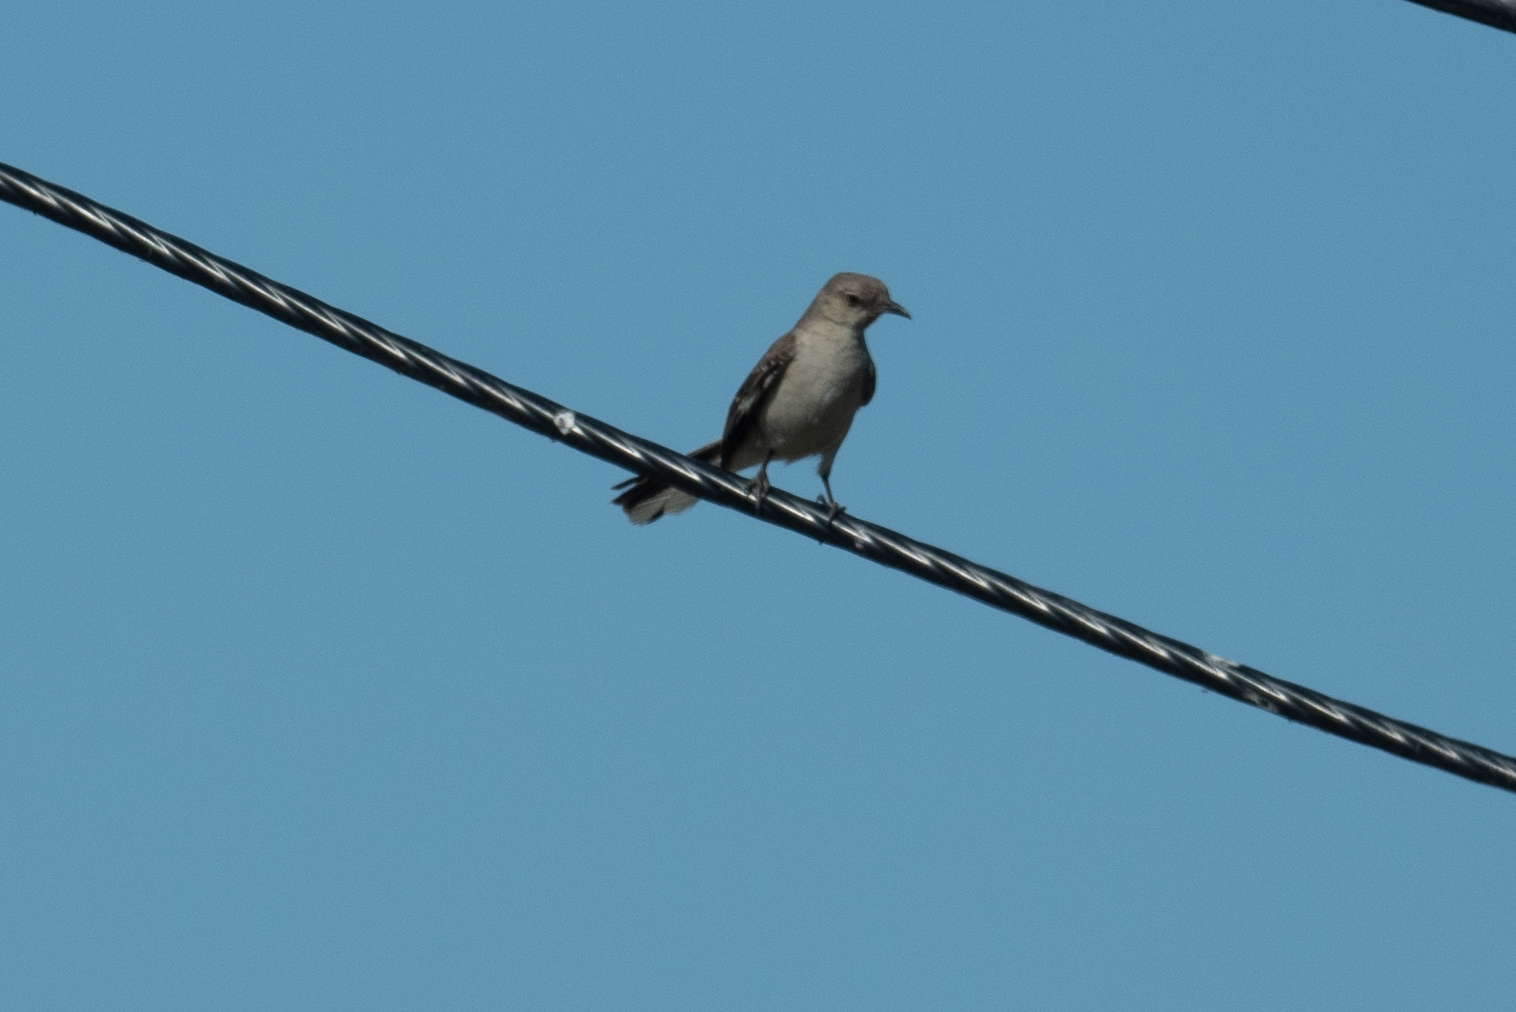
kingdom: Animalia
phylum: Chordata
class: Aves
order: Passeriformes
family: Mimidae
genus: Mimus
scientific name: Mimus polyglottos
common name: Northern mockingbird
